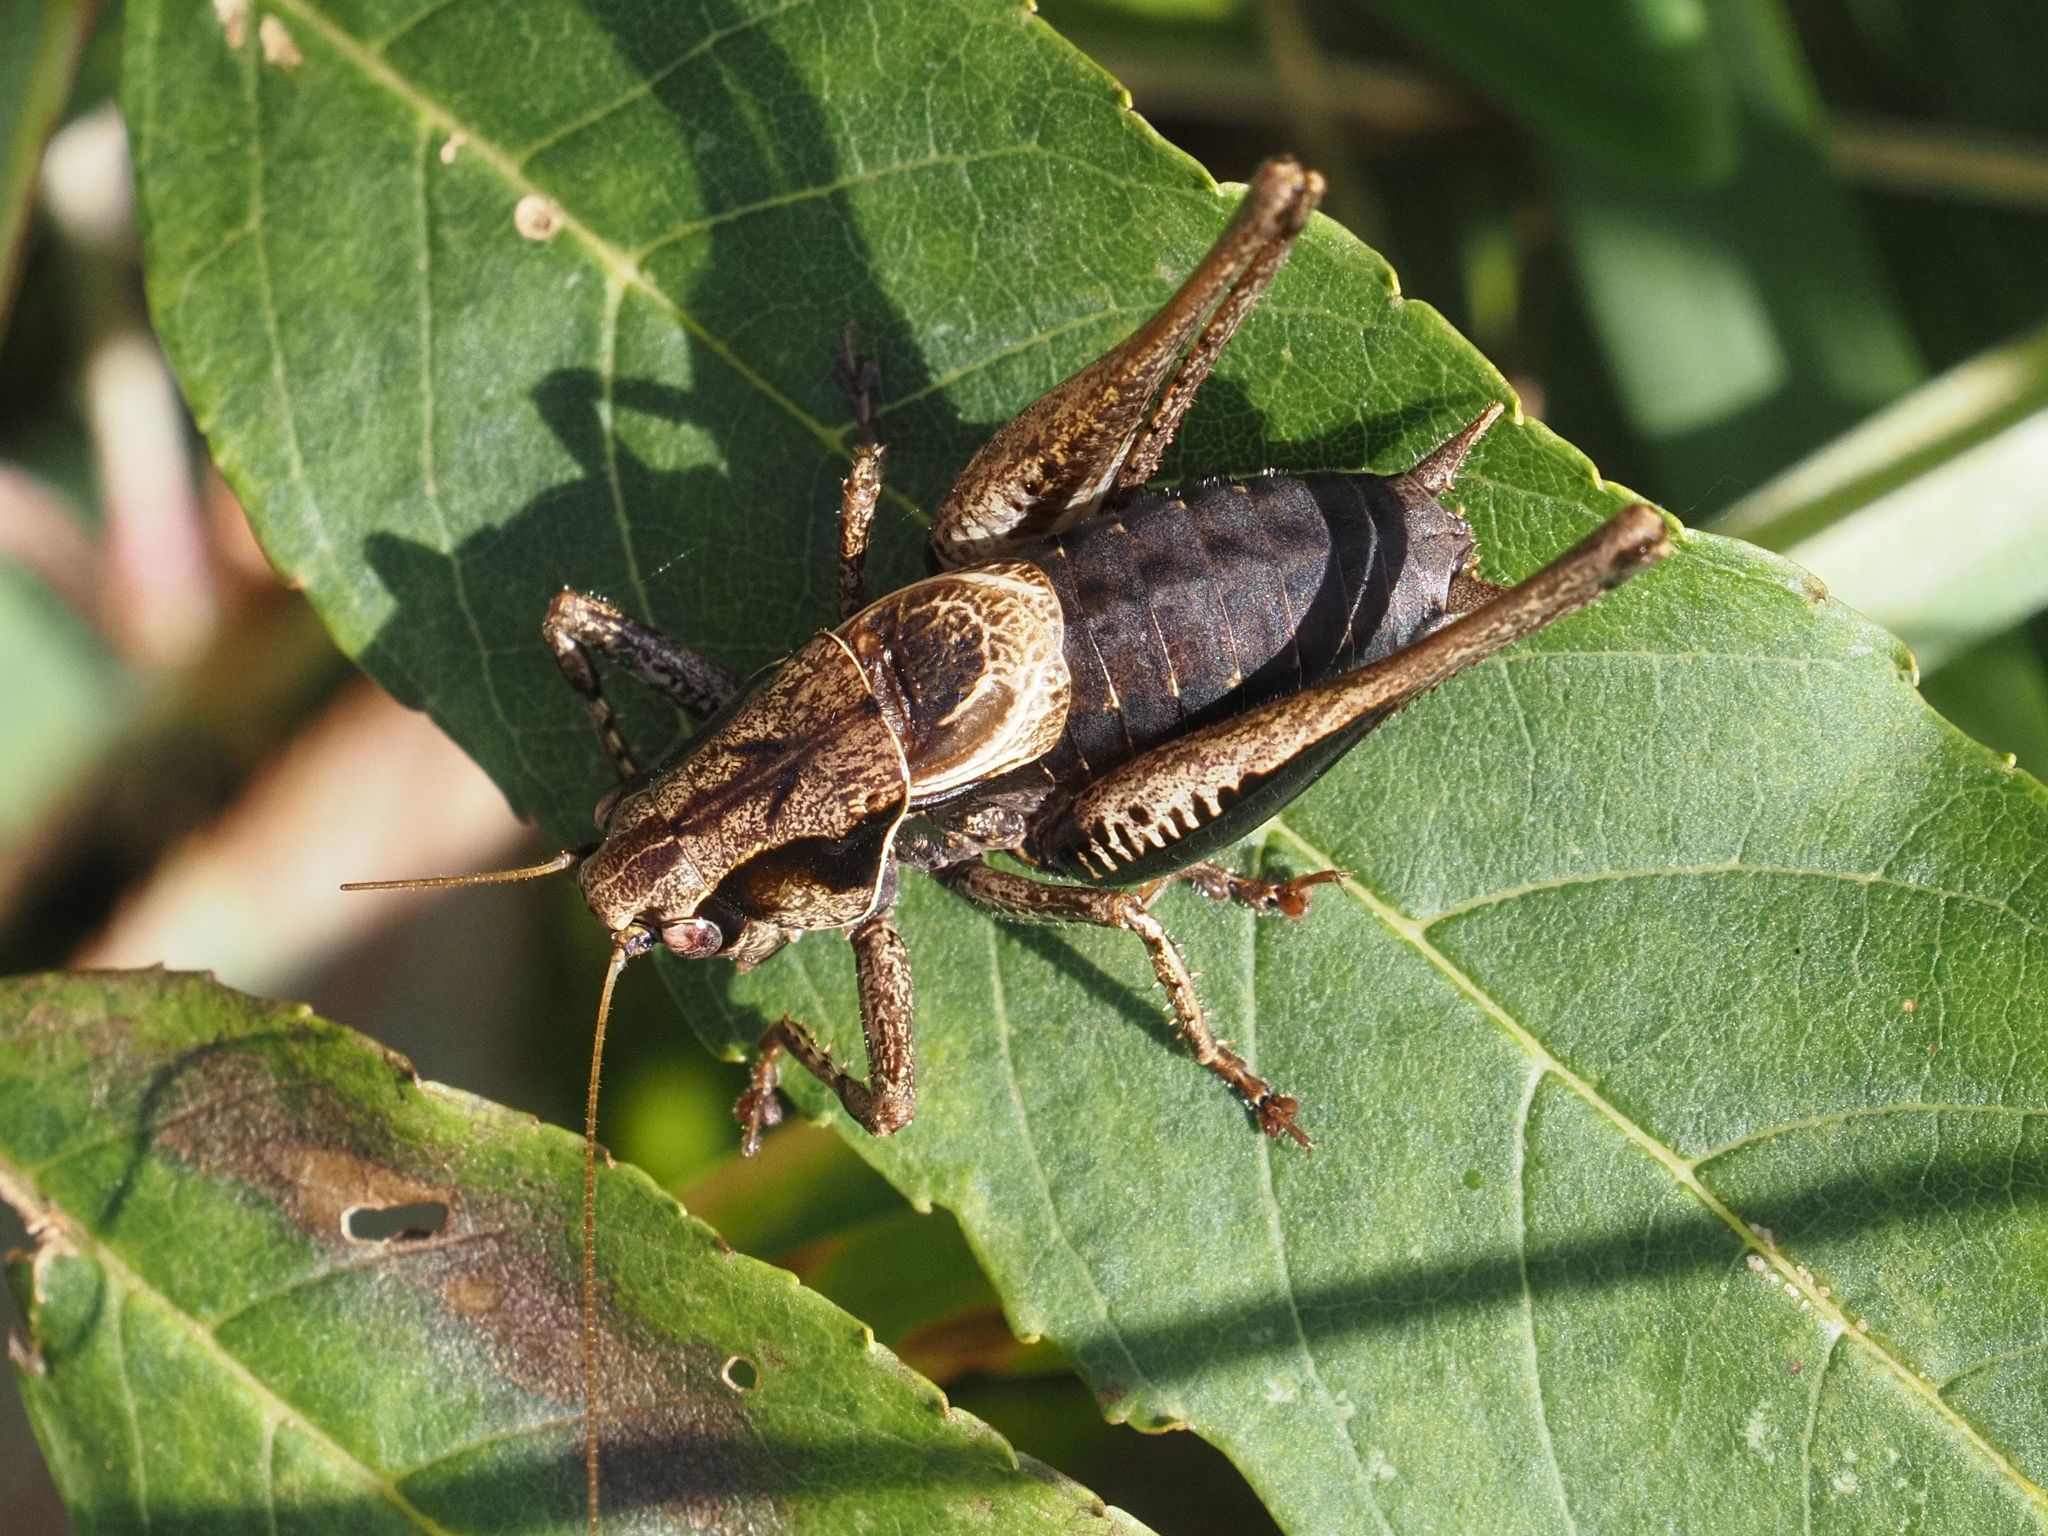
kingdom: Animalia
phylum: Arthropoda
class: Insecta
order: Orthoptera
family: Tettigoniidae
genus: Pholidoptera
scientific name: Pholidoptera griseoaptera
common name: Dark bush-cricket
